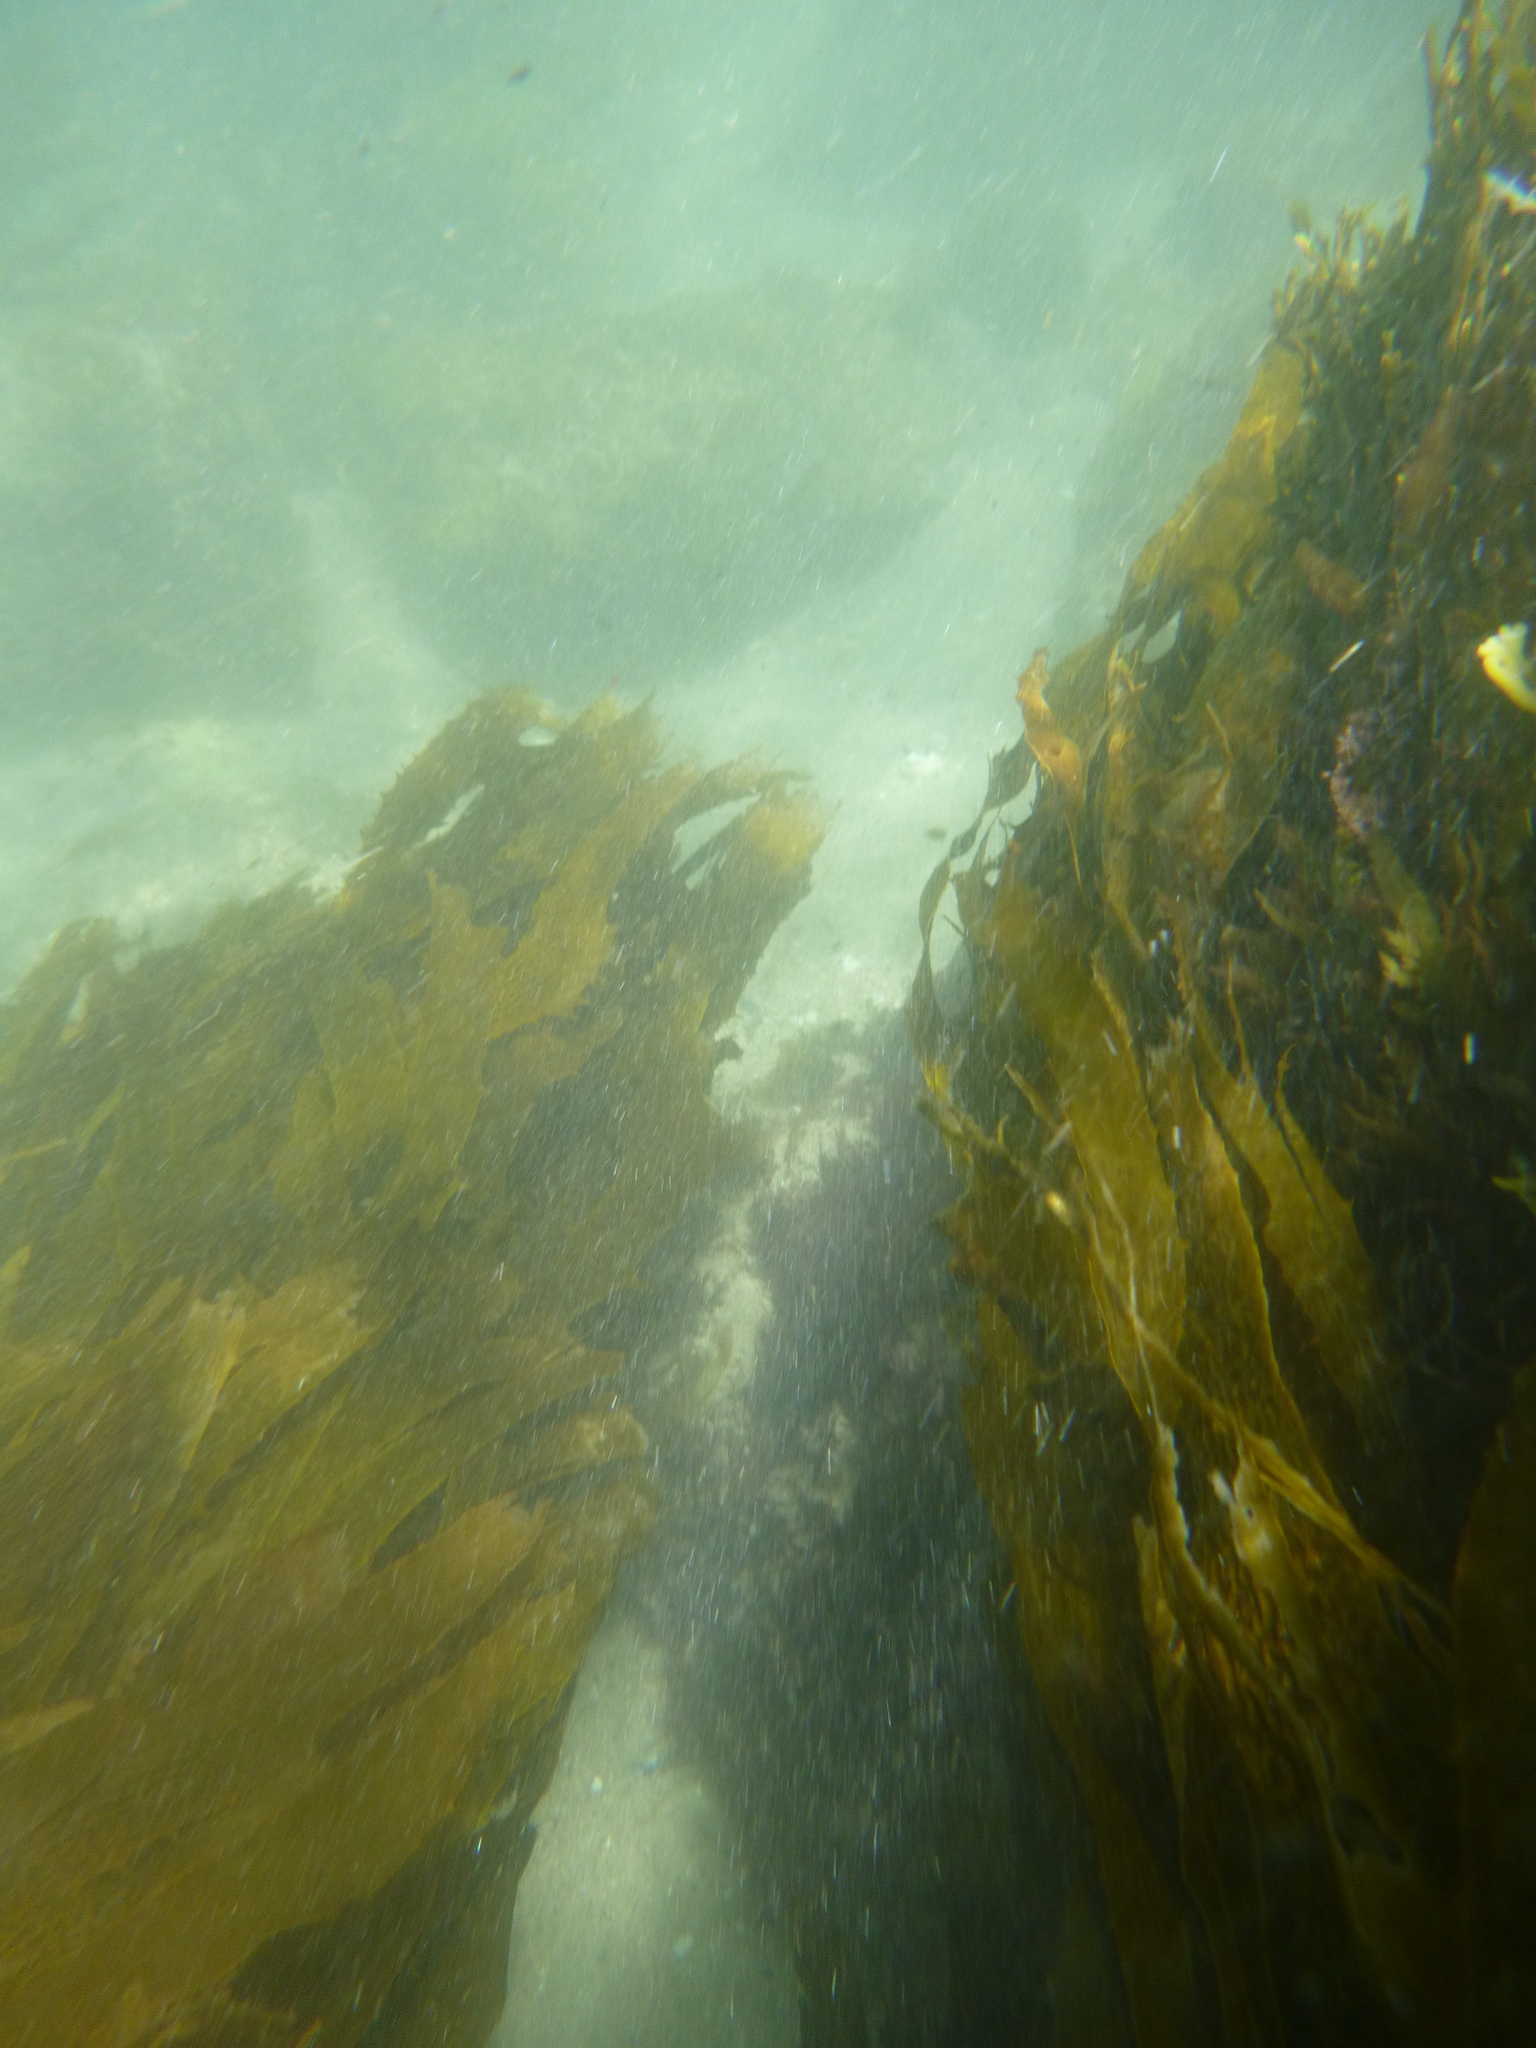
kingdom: Chromista
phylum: Ochrophyta
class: Phaeophyceae
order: Laminariales
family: Lessoniaceae
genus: Ecklonia
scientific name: Ecklonia radiata
